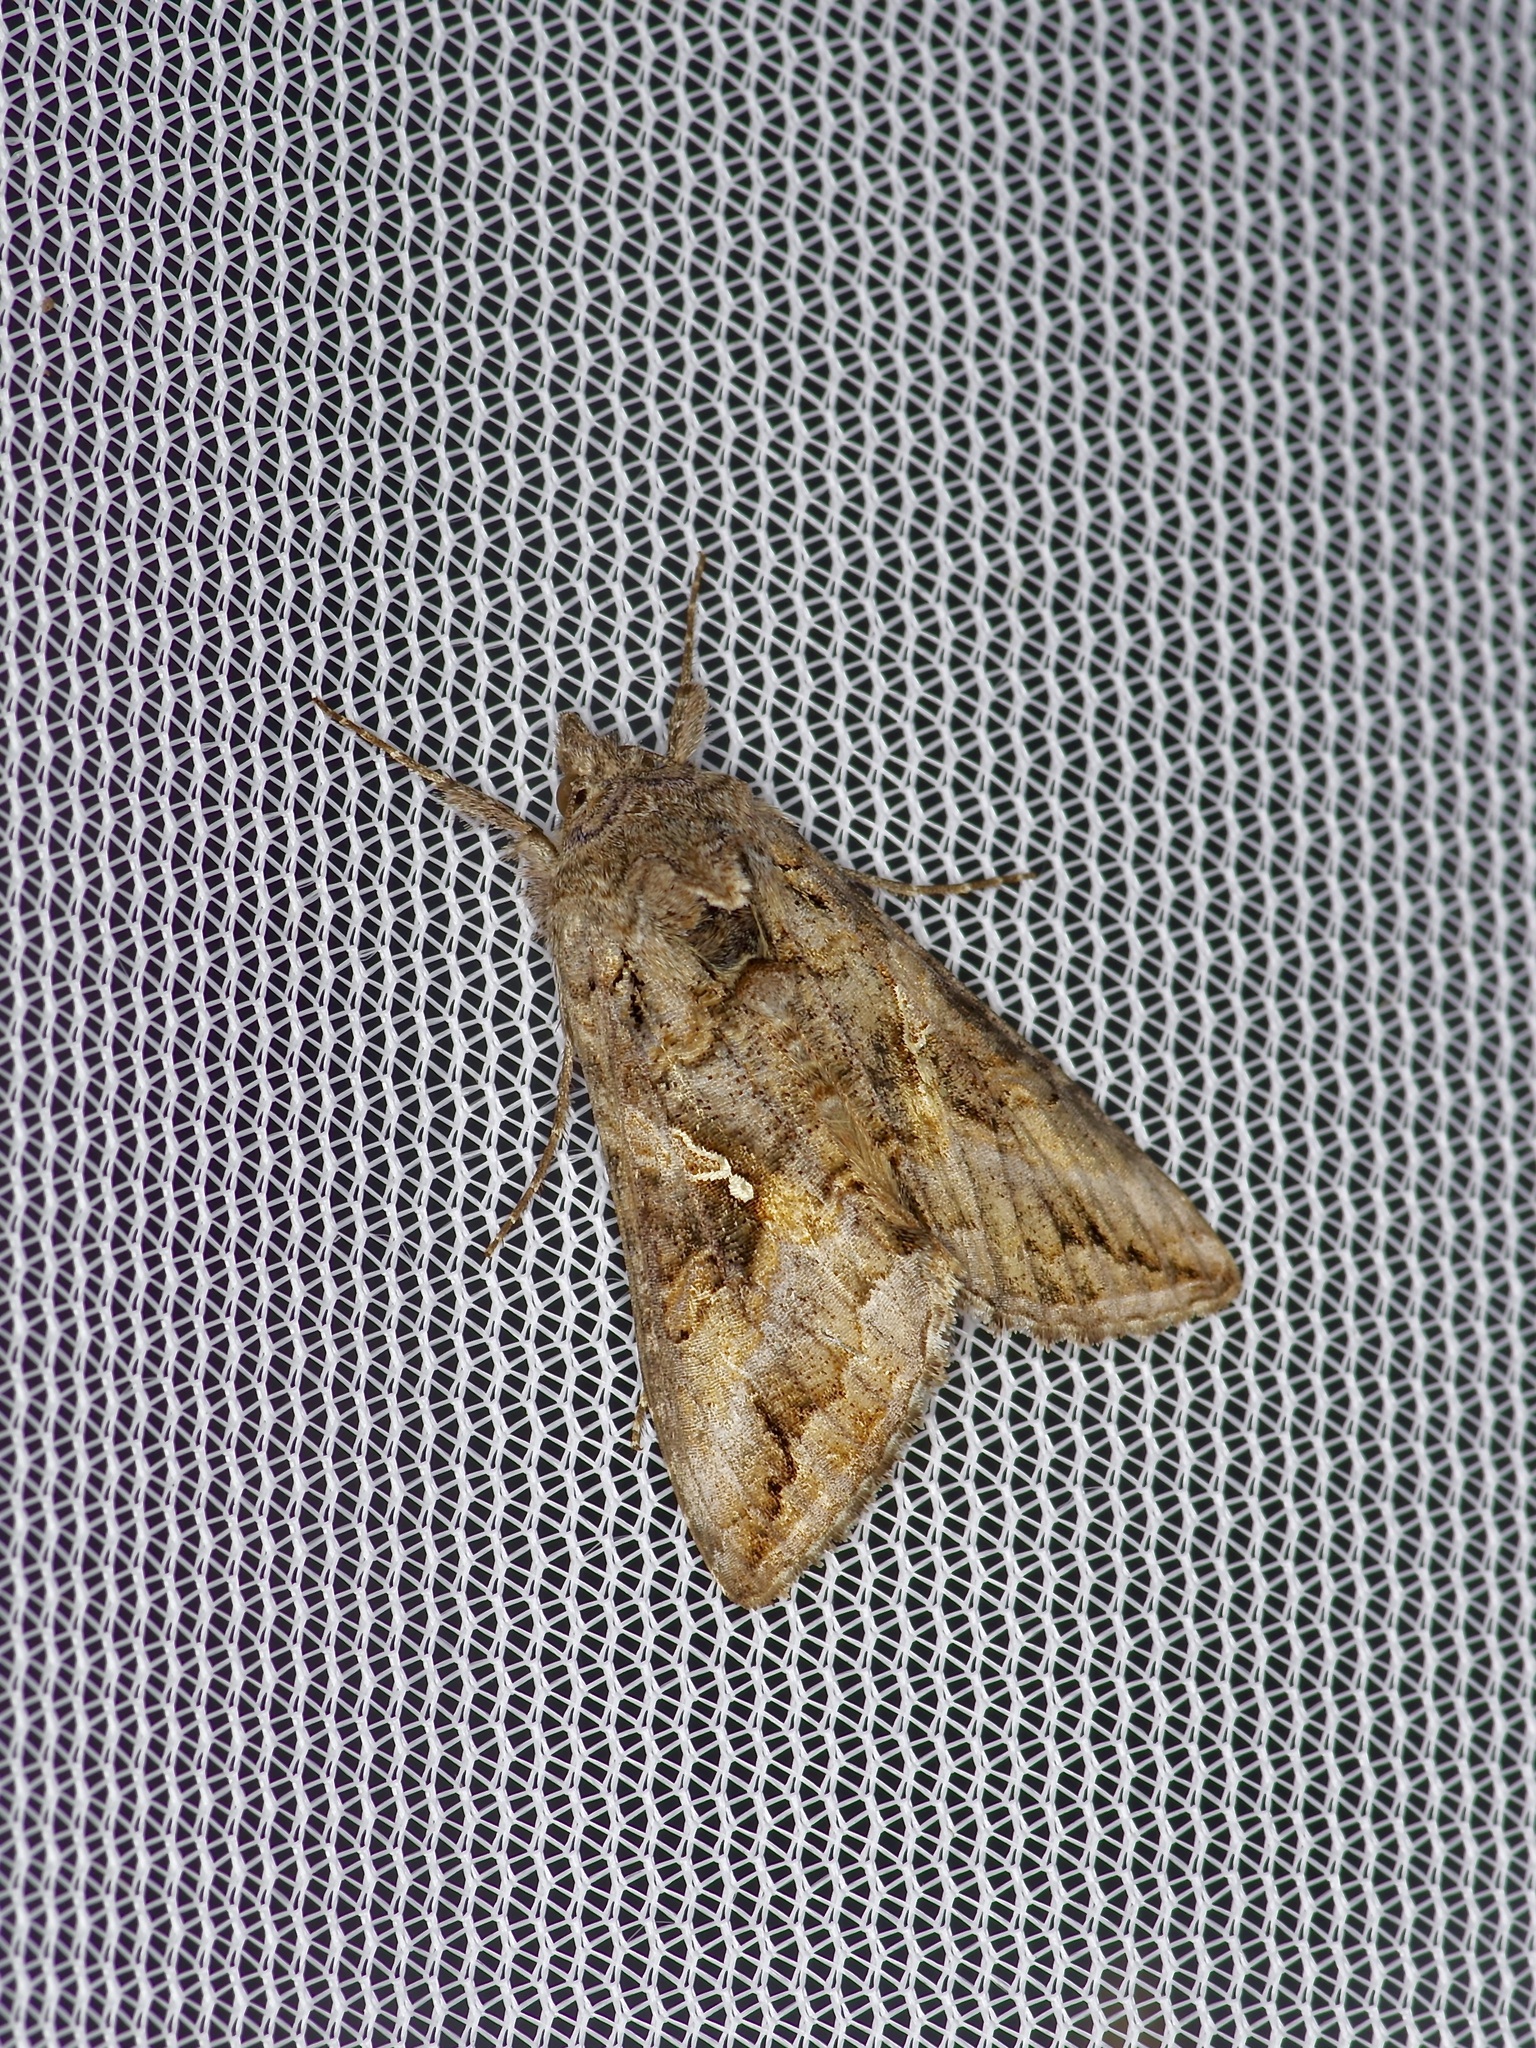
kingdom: Animalia
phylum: Arthropoda
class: Insecta
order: Lepidoptera
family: Noctuidae
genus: Rachiplusia
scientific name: Rachiplusia ou
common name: Gray looper moth
